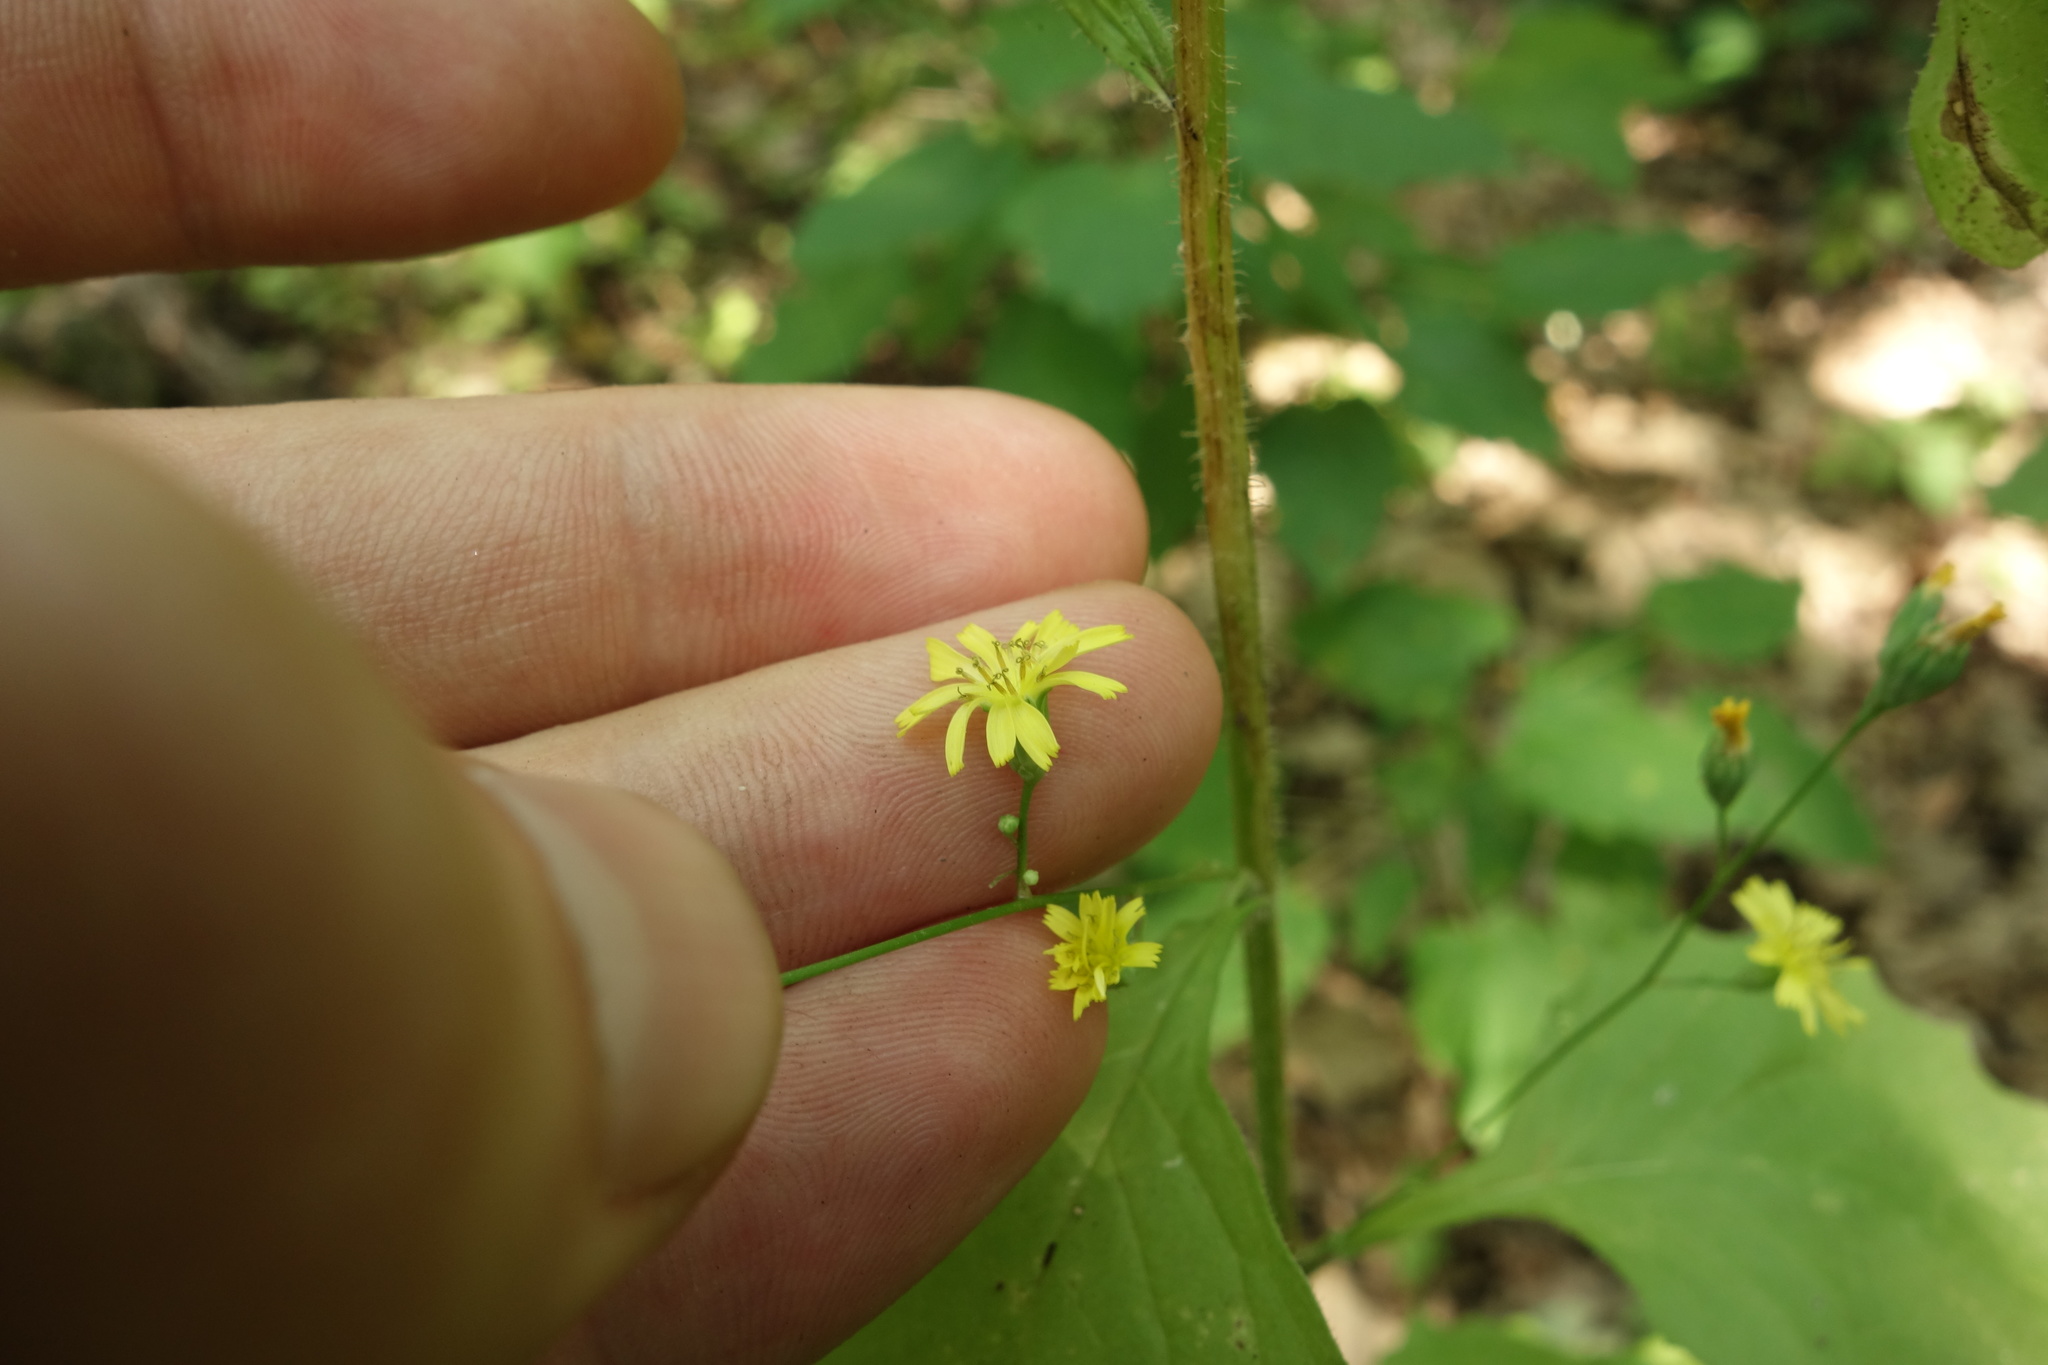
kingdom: Plantae
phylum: Tracheophyta
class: Magnoliopsida
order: Asterales
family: Asteraceae
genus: Lapsana
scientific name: Lapsana communis
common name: Nipplewort
